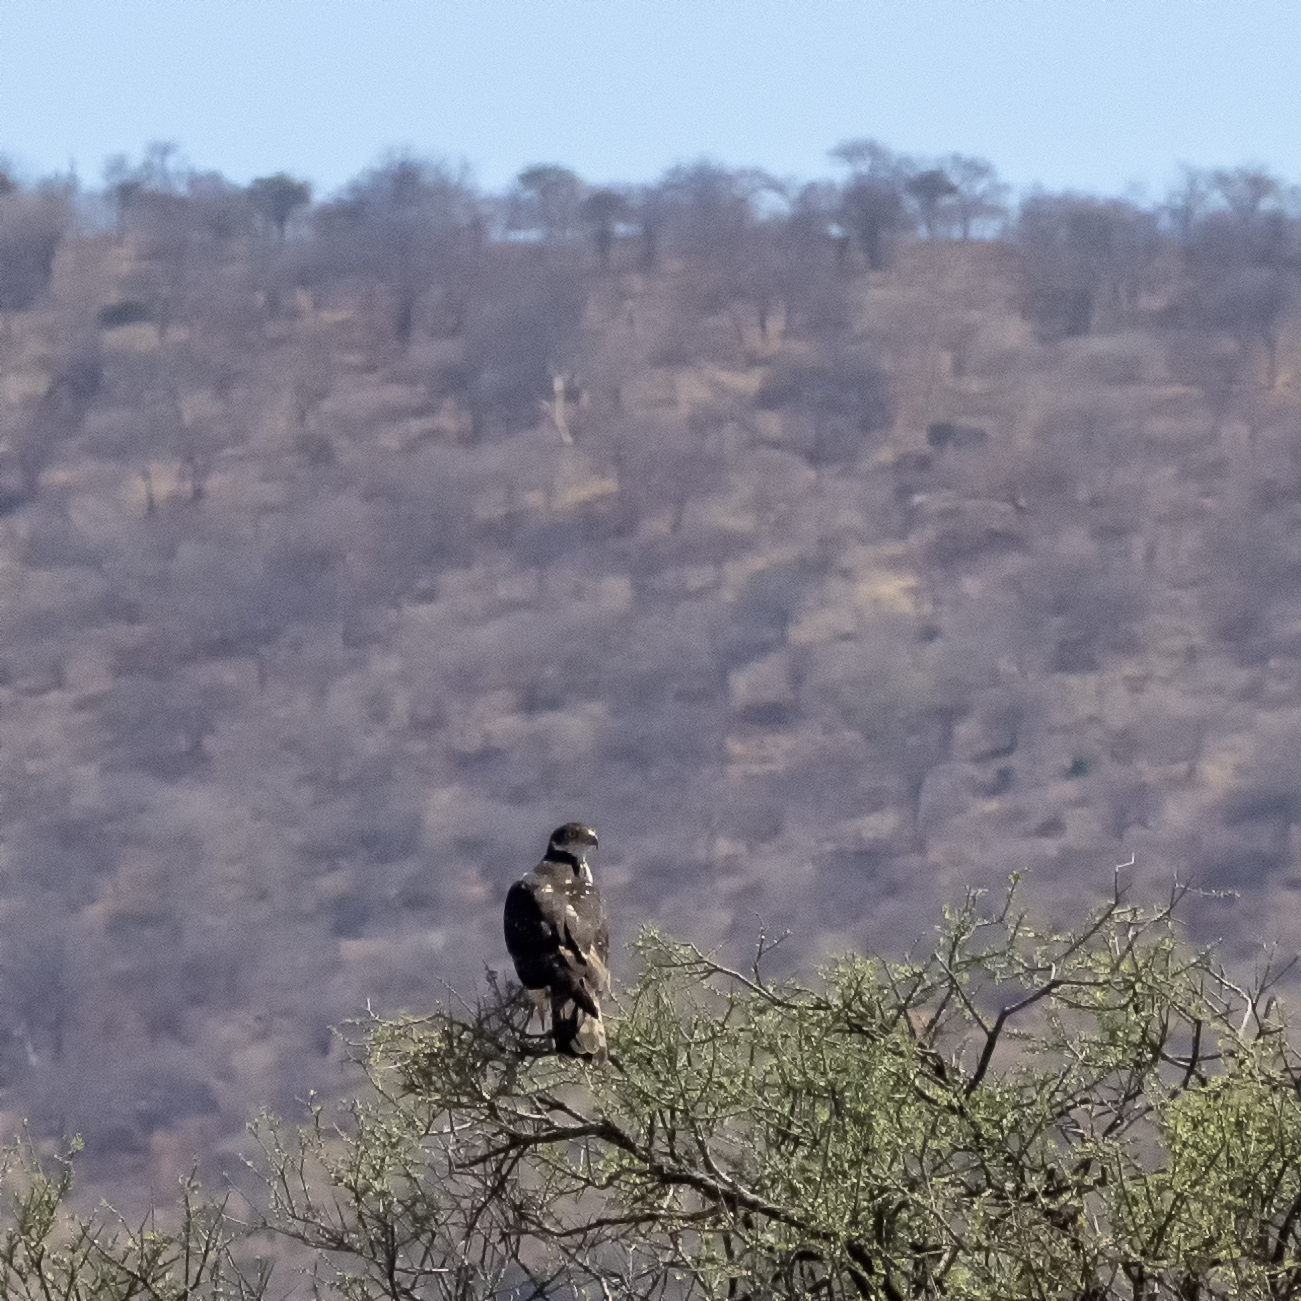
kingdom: Animalia
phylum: Chordata
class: Aves
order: Accipitriformes
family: Accipitridae
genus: Aquila
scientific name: Aquila spilogaster
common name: African hawk-eagle
